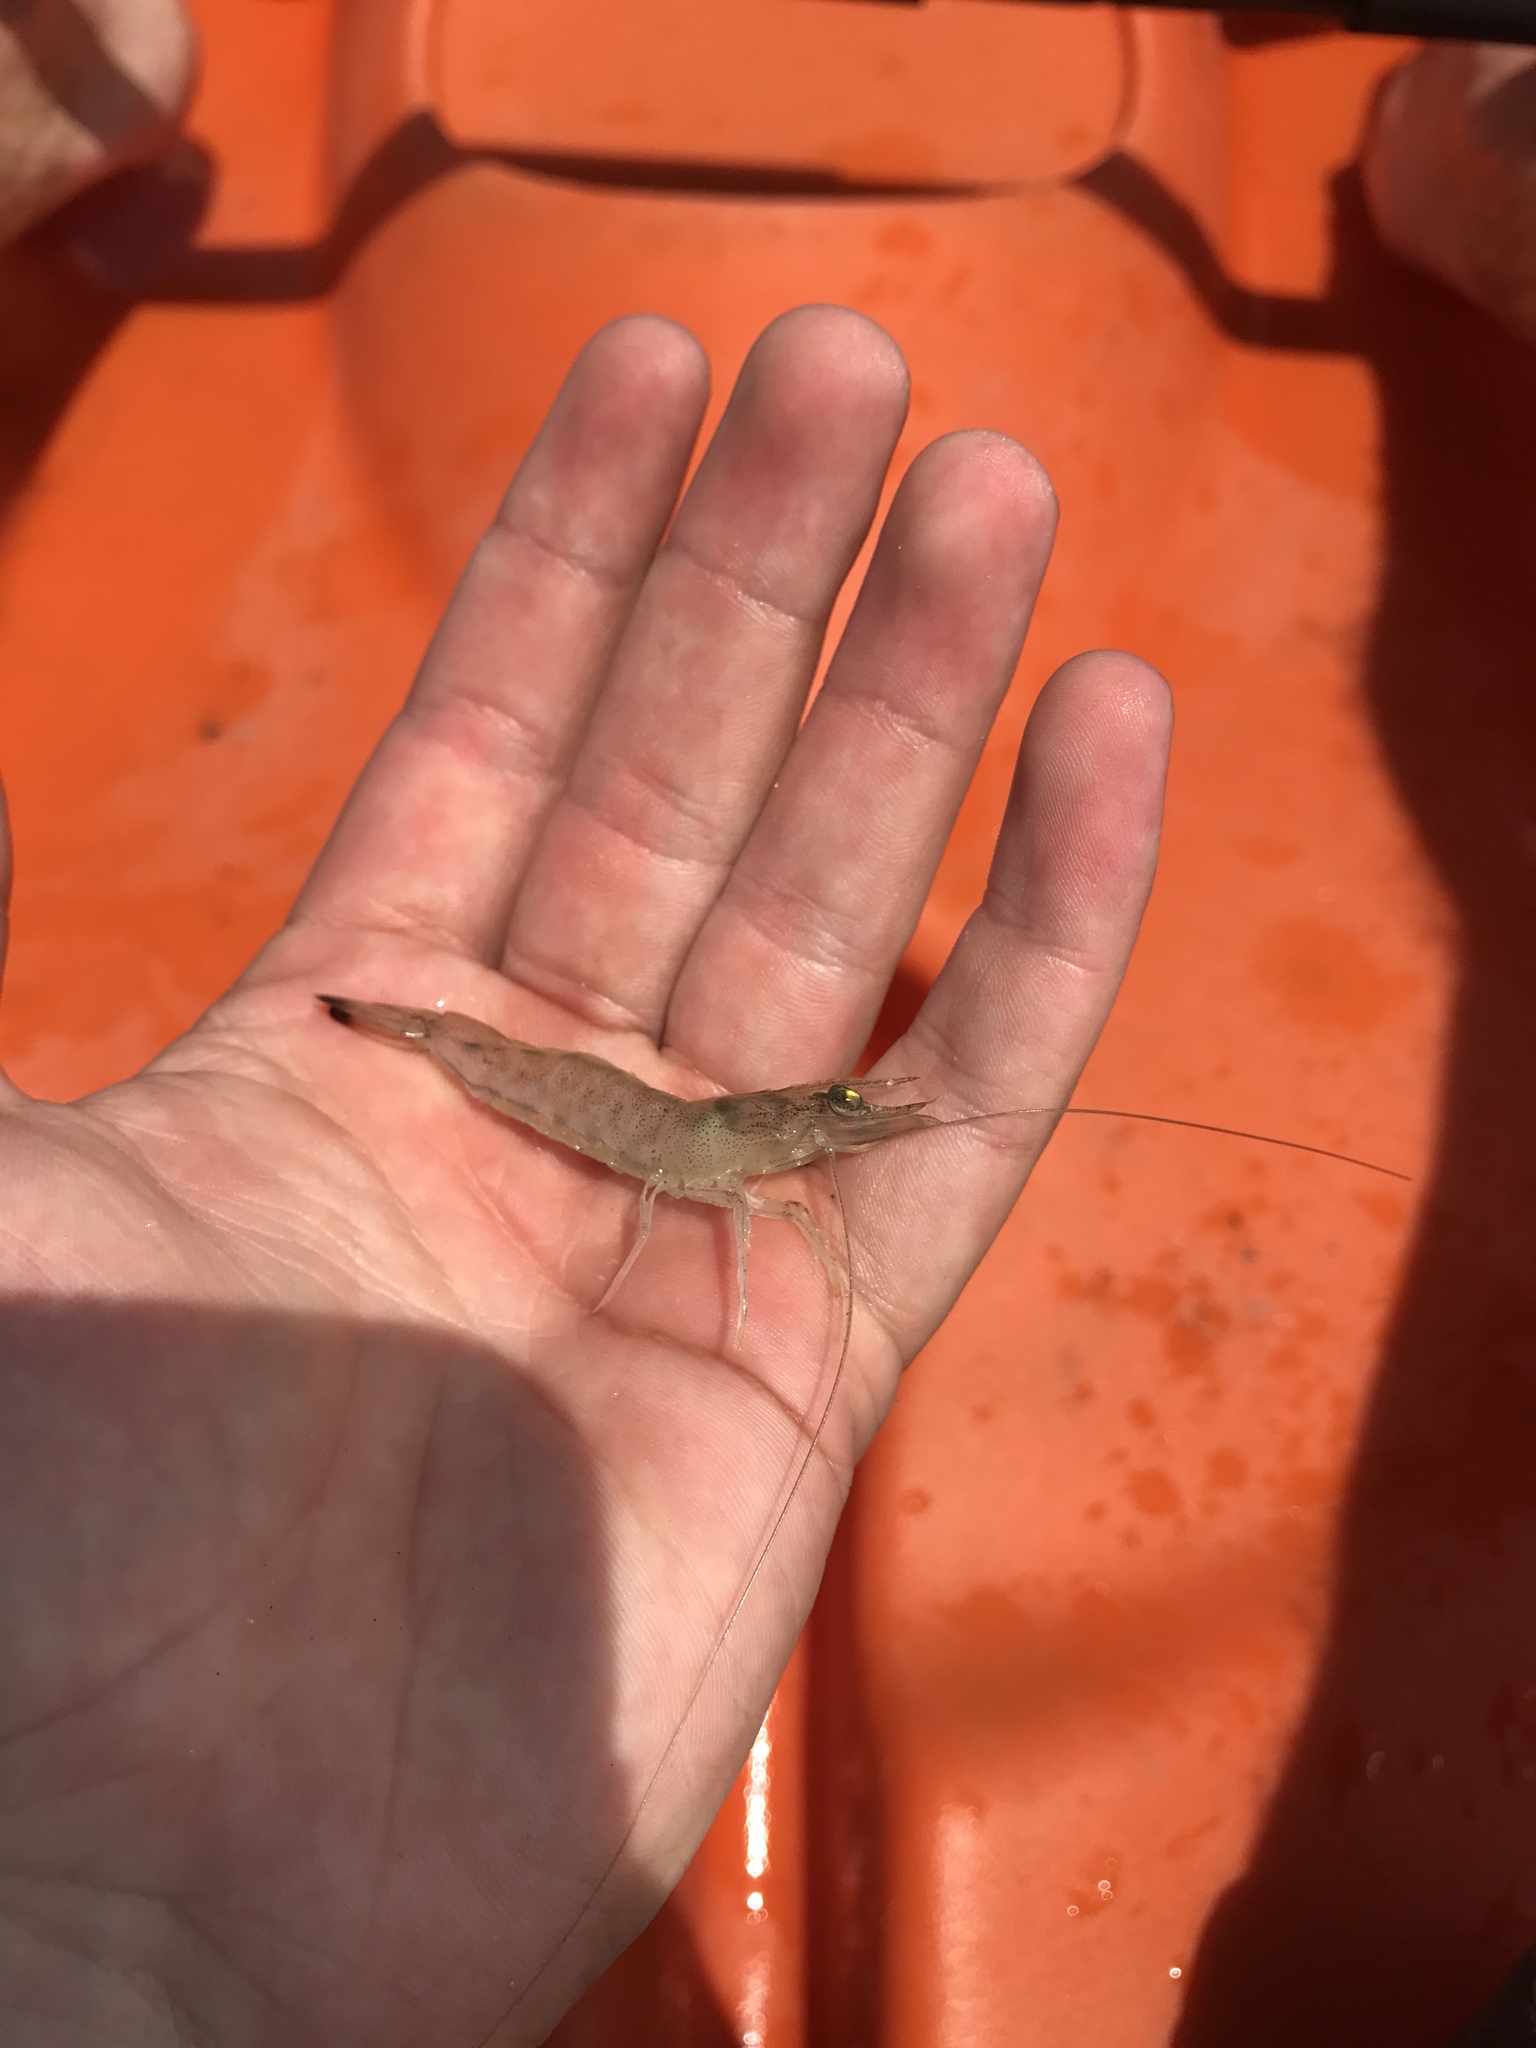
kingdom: Animalia
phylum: Arthropoda
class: Malacostraca
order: Decapoda
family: Penaeidae
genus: Penaeus
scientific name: Penaeus aztecus
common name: Brown shrimp
